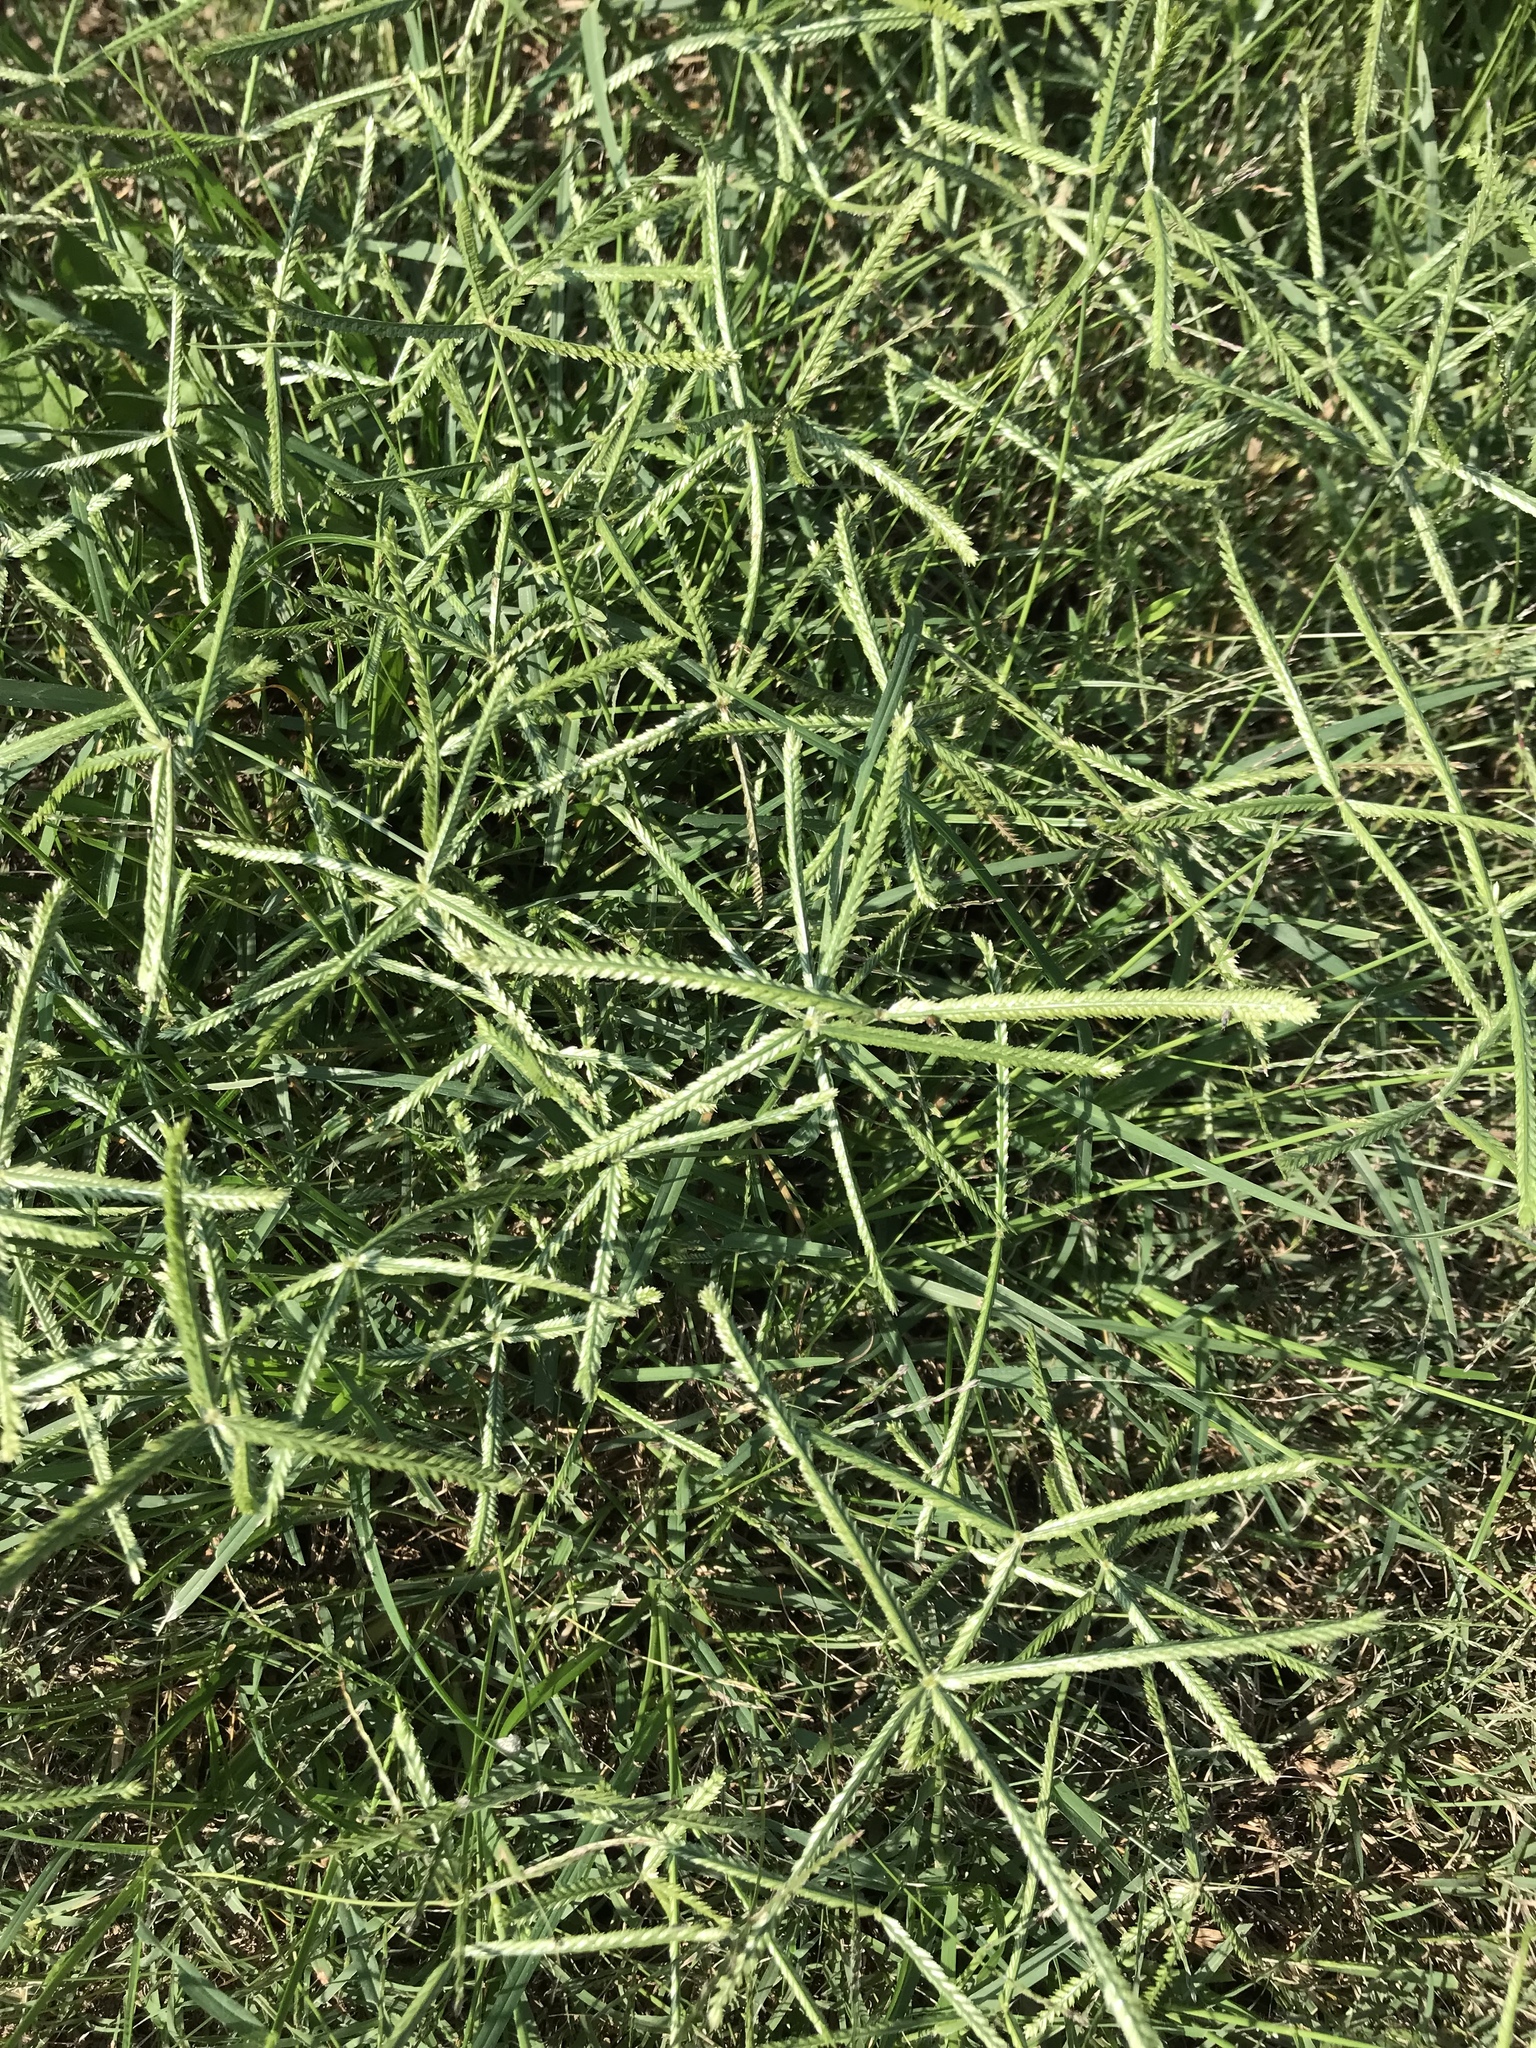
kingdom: Plantae
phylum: Tracheophyta
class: Liliopsida
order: Poales
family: Poaceae
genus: Eleusine
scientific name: Eleusine indica
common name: Yard-grass
